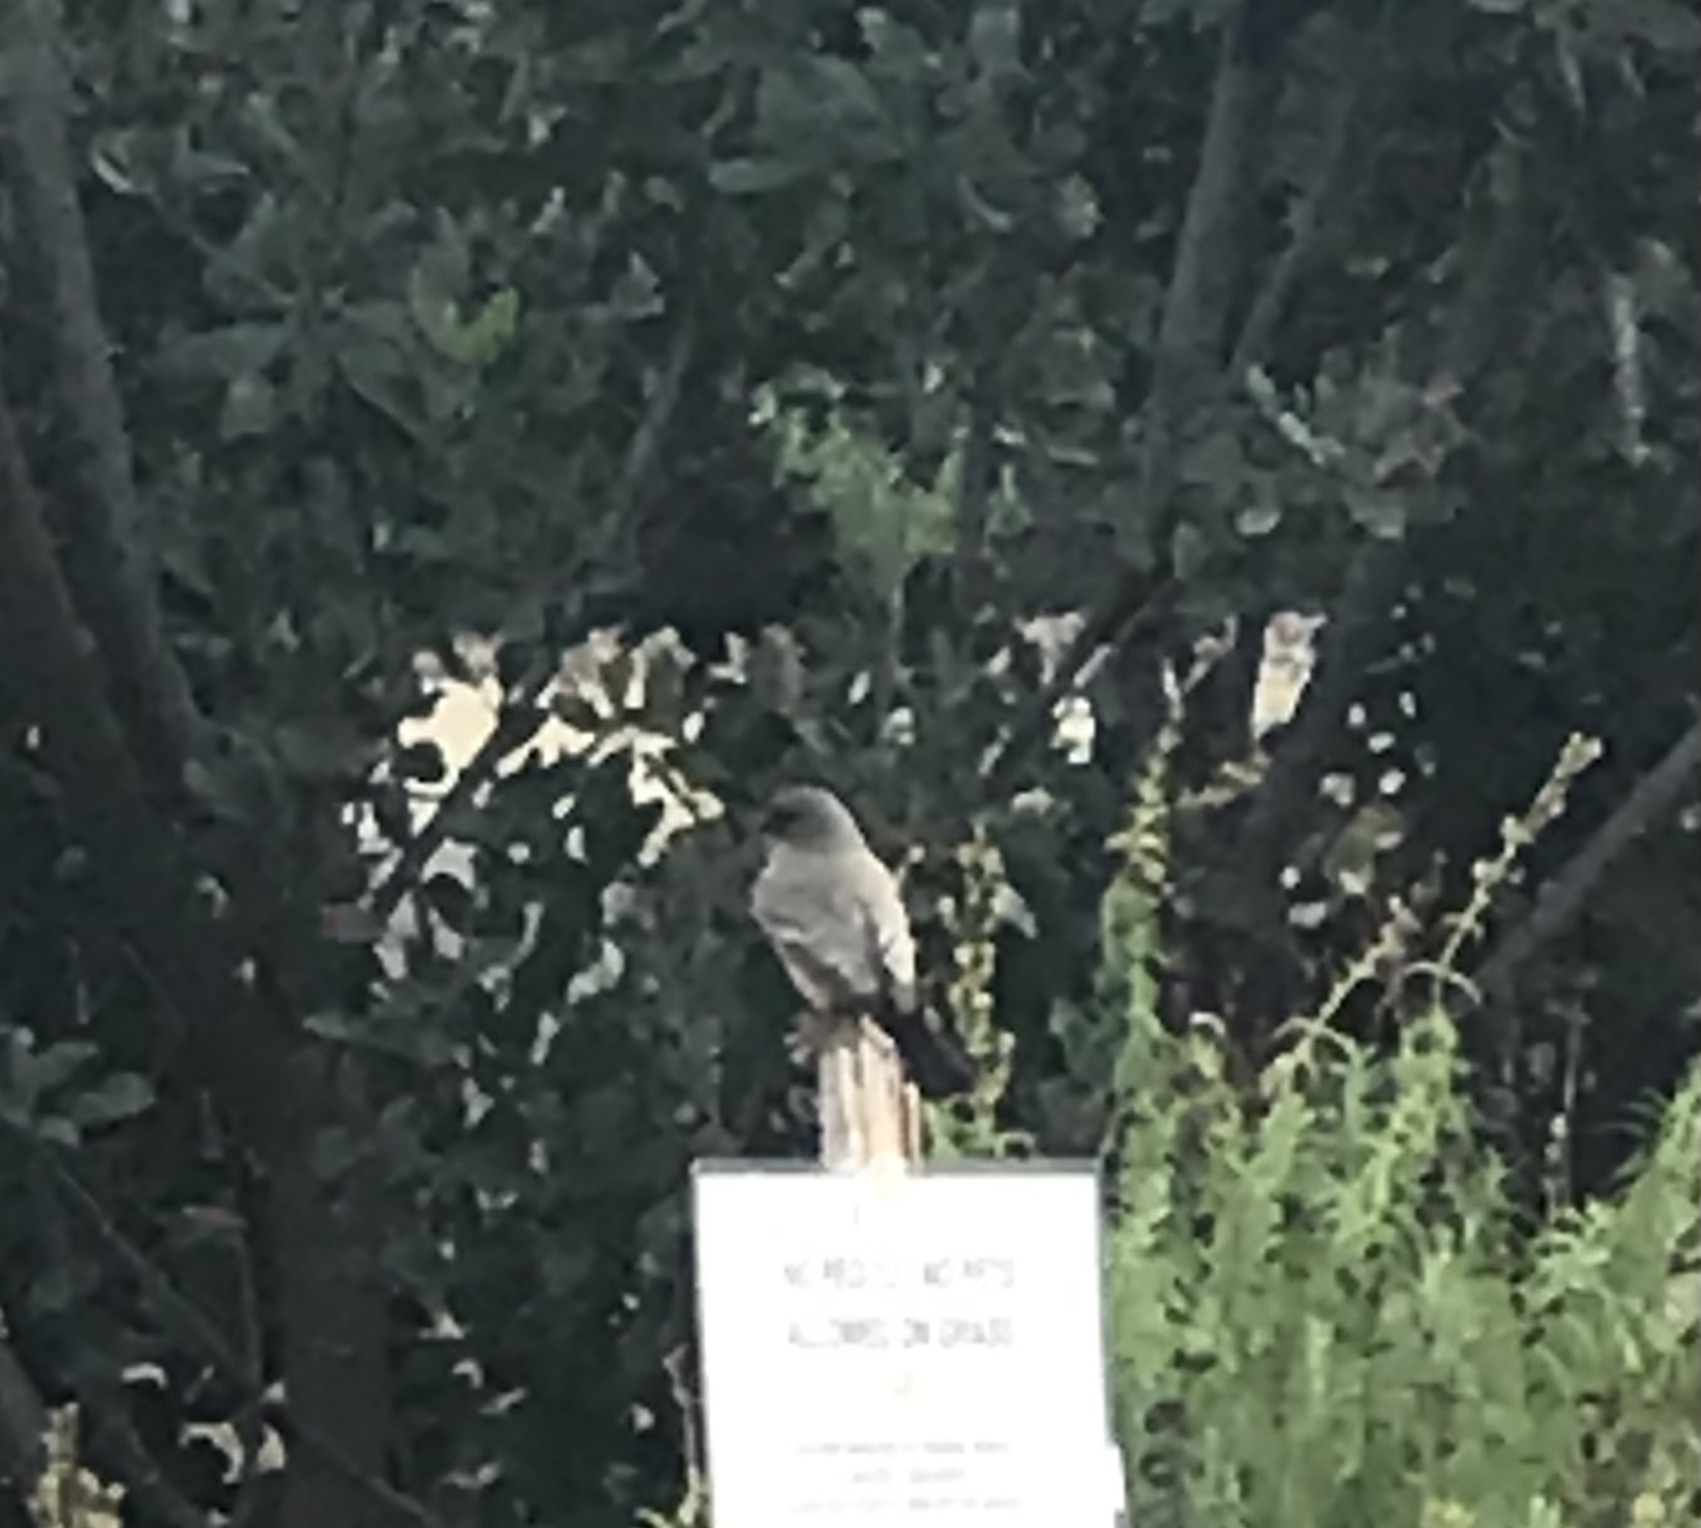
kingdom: Animalia
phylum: Chordata
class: Aves
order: Passeriformes
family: Tyrannidae
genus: Sayornis
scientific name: Sayornis saya
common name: Say's phoebe
